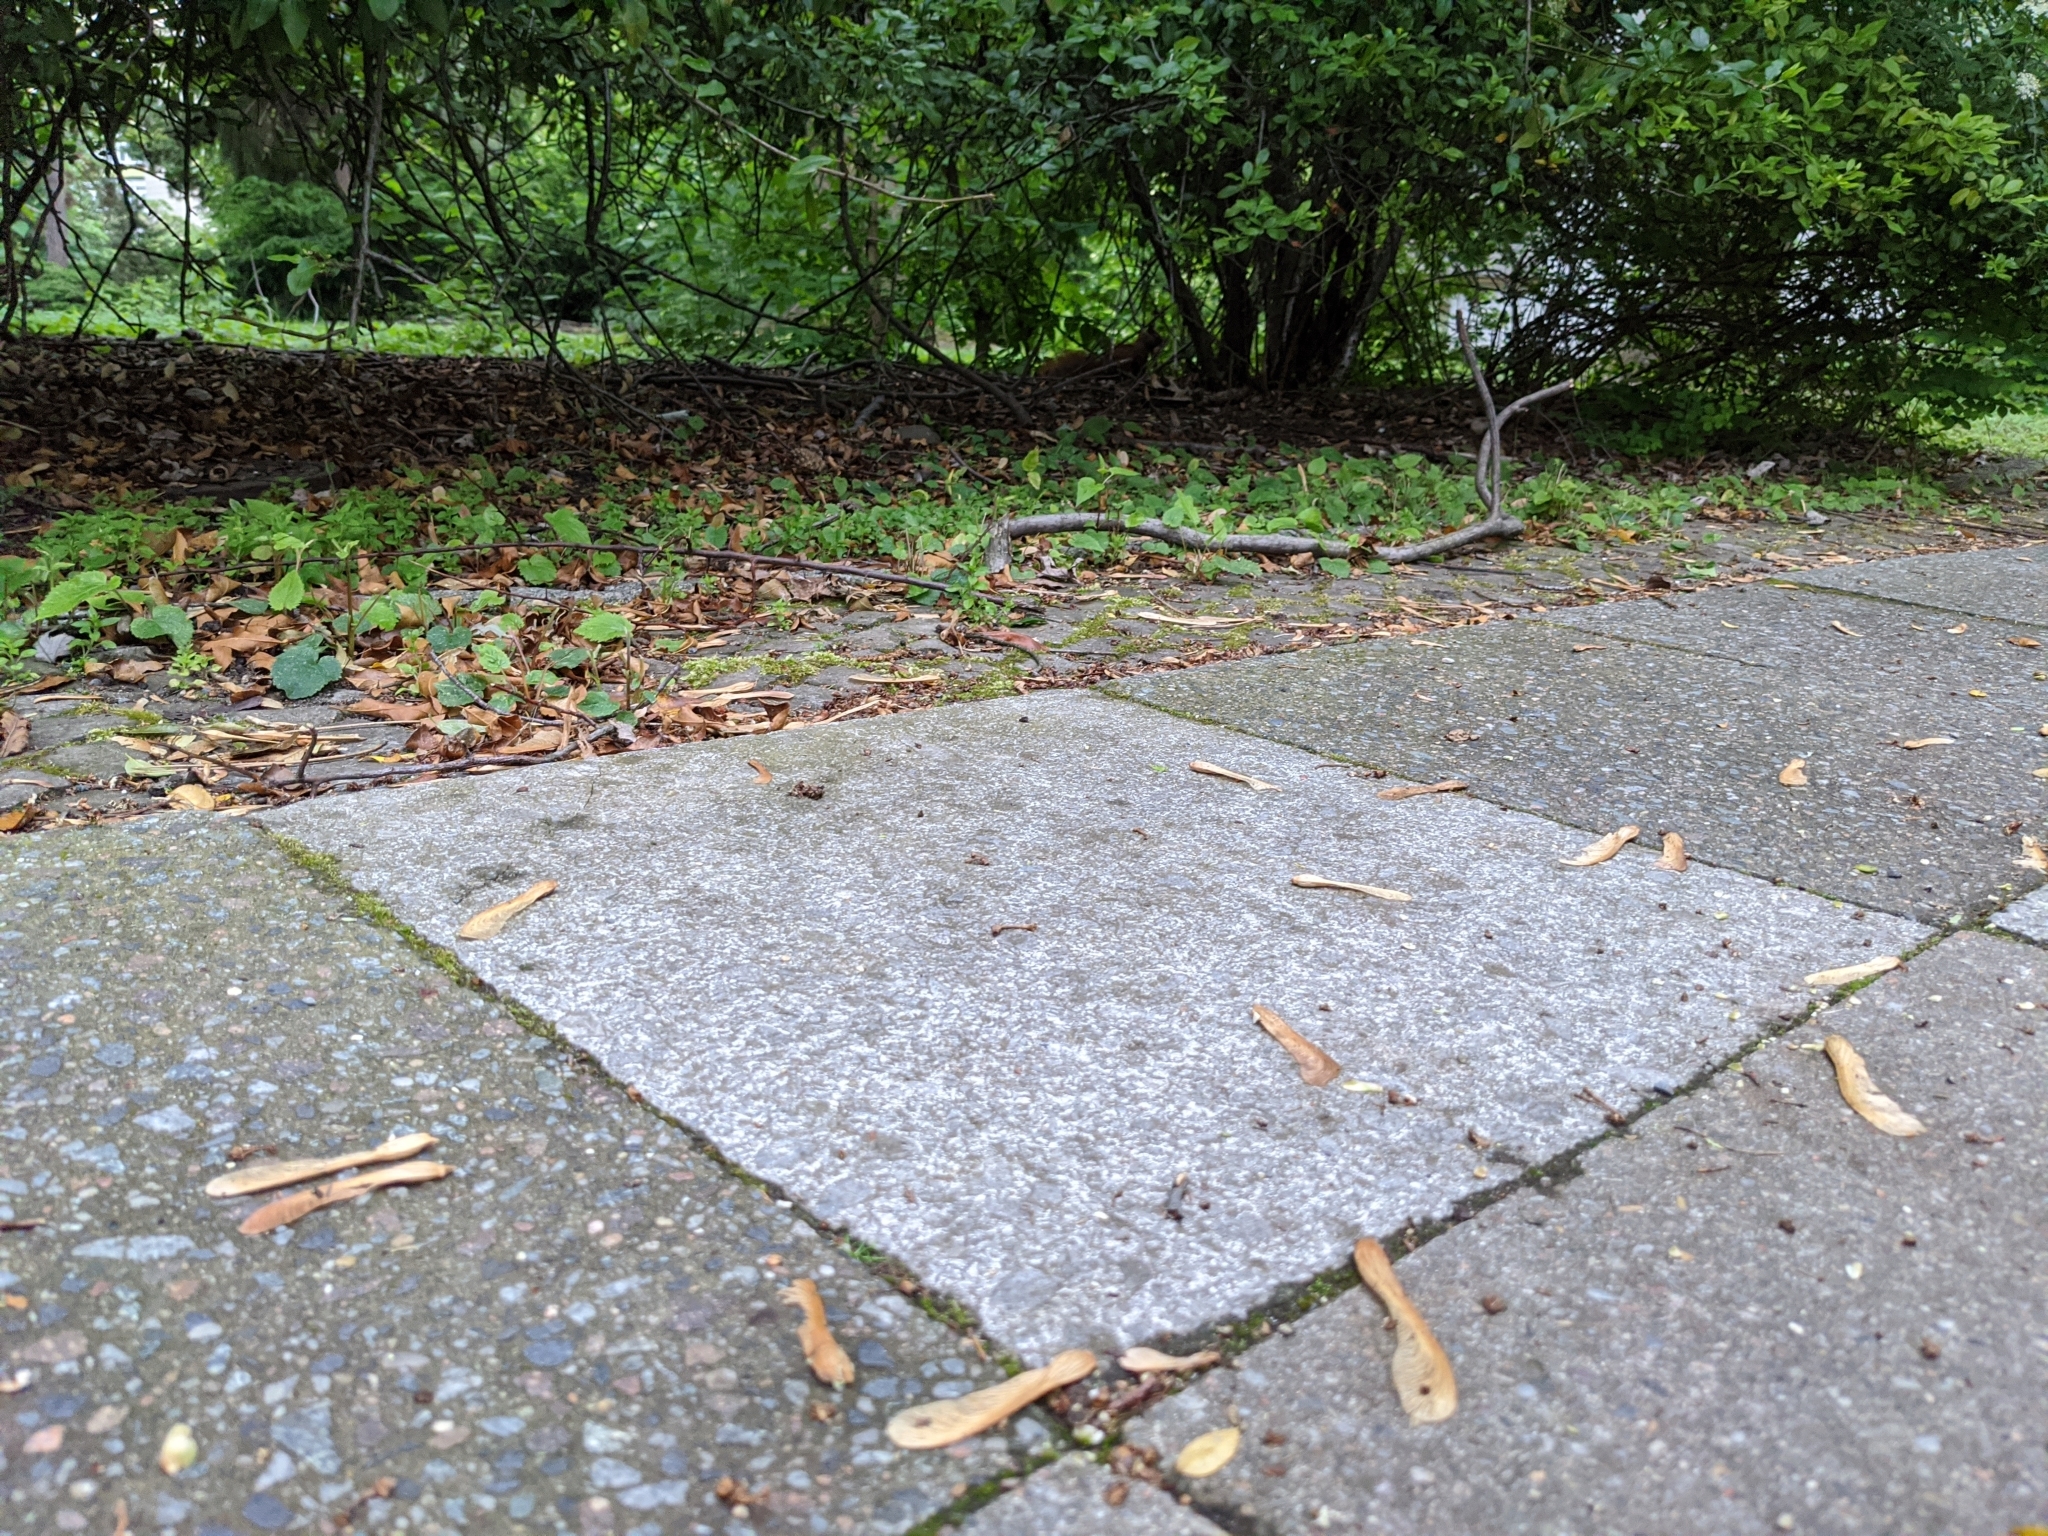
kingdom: Animalia
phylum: Chordata
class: Mammalia
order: Rodentia
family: Sciuridae
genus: Sciurus
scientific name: Sciurus vulgaris
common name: Eurasian red squirrel
